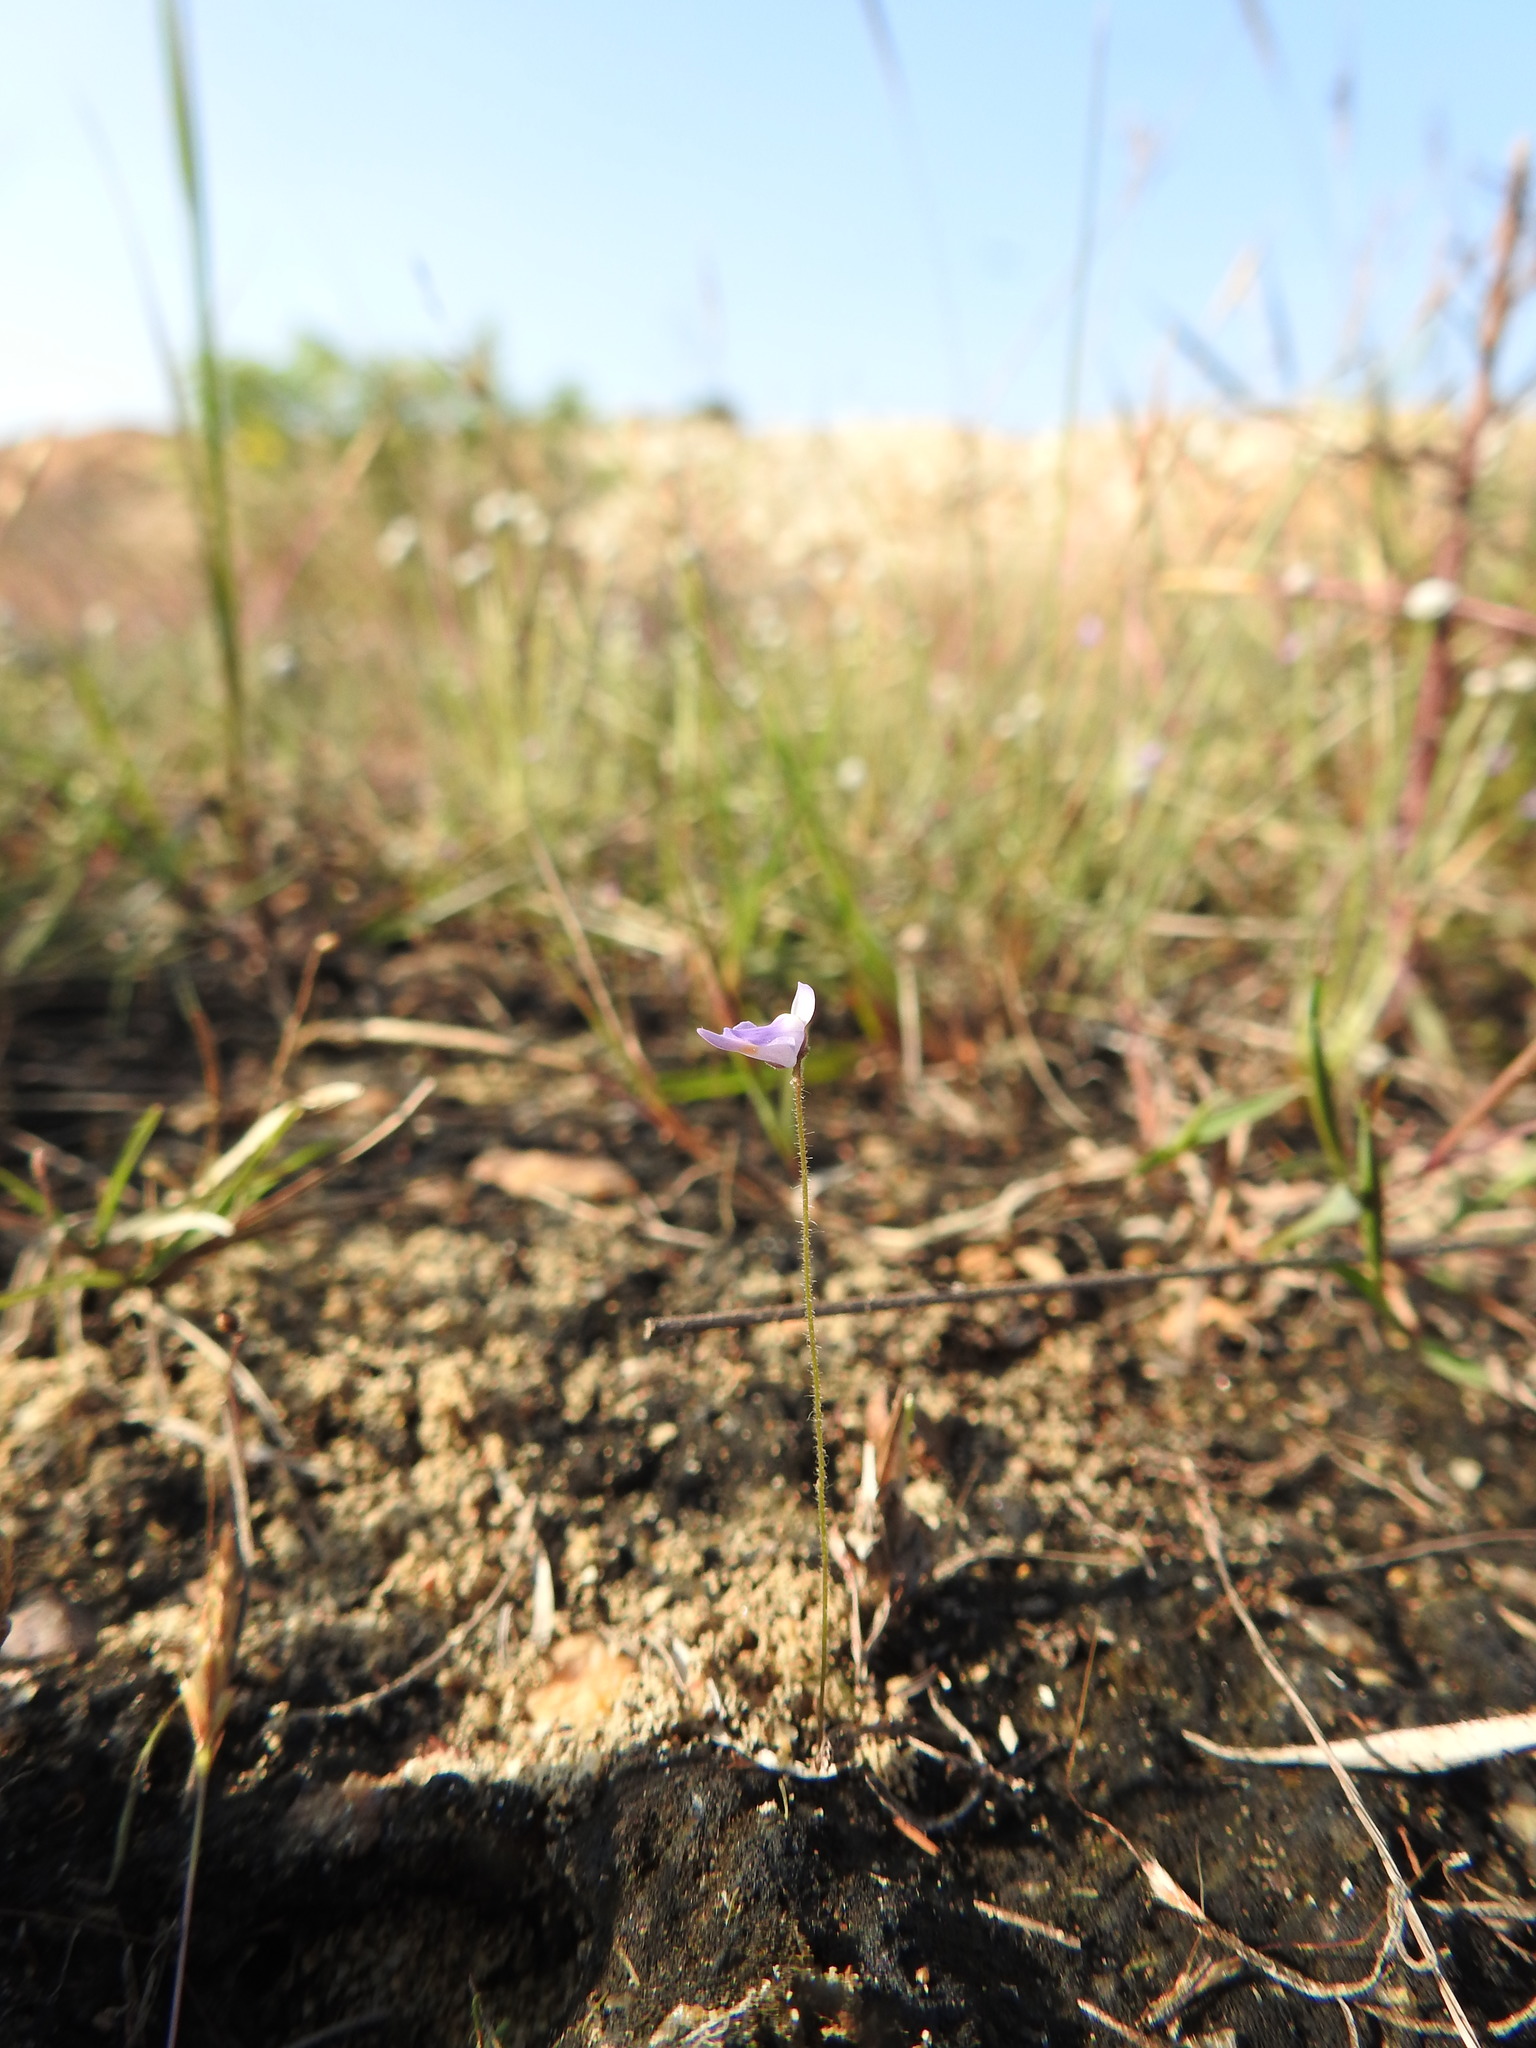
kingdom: Plantae
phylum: Tracheophyta
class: Magnoliopsida
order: Lamiales
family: Lentibulariaceae
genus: Utricularia
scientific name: Utricularia hirta
